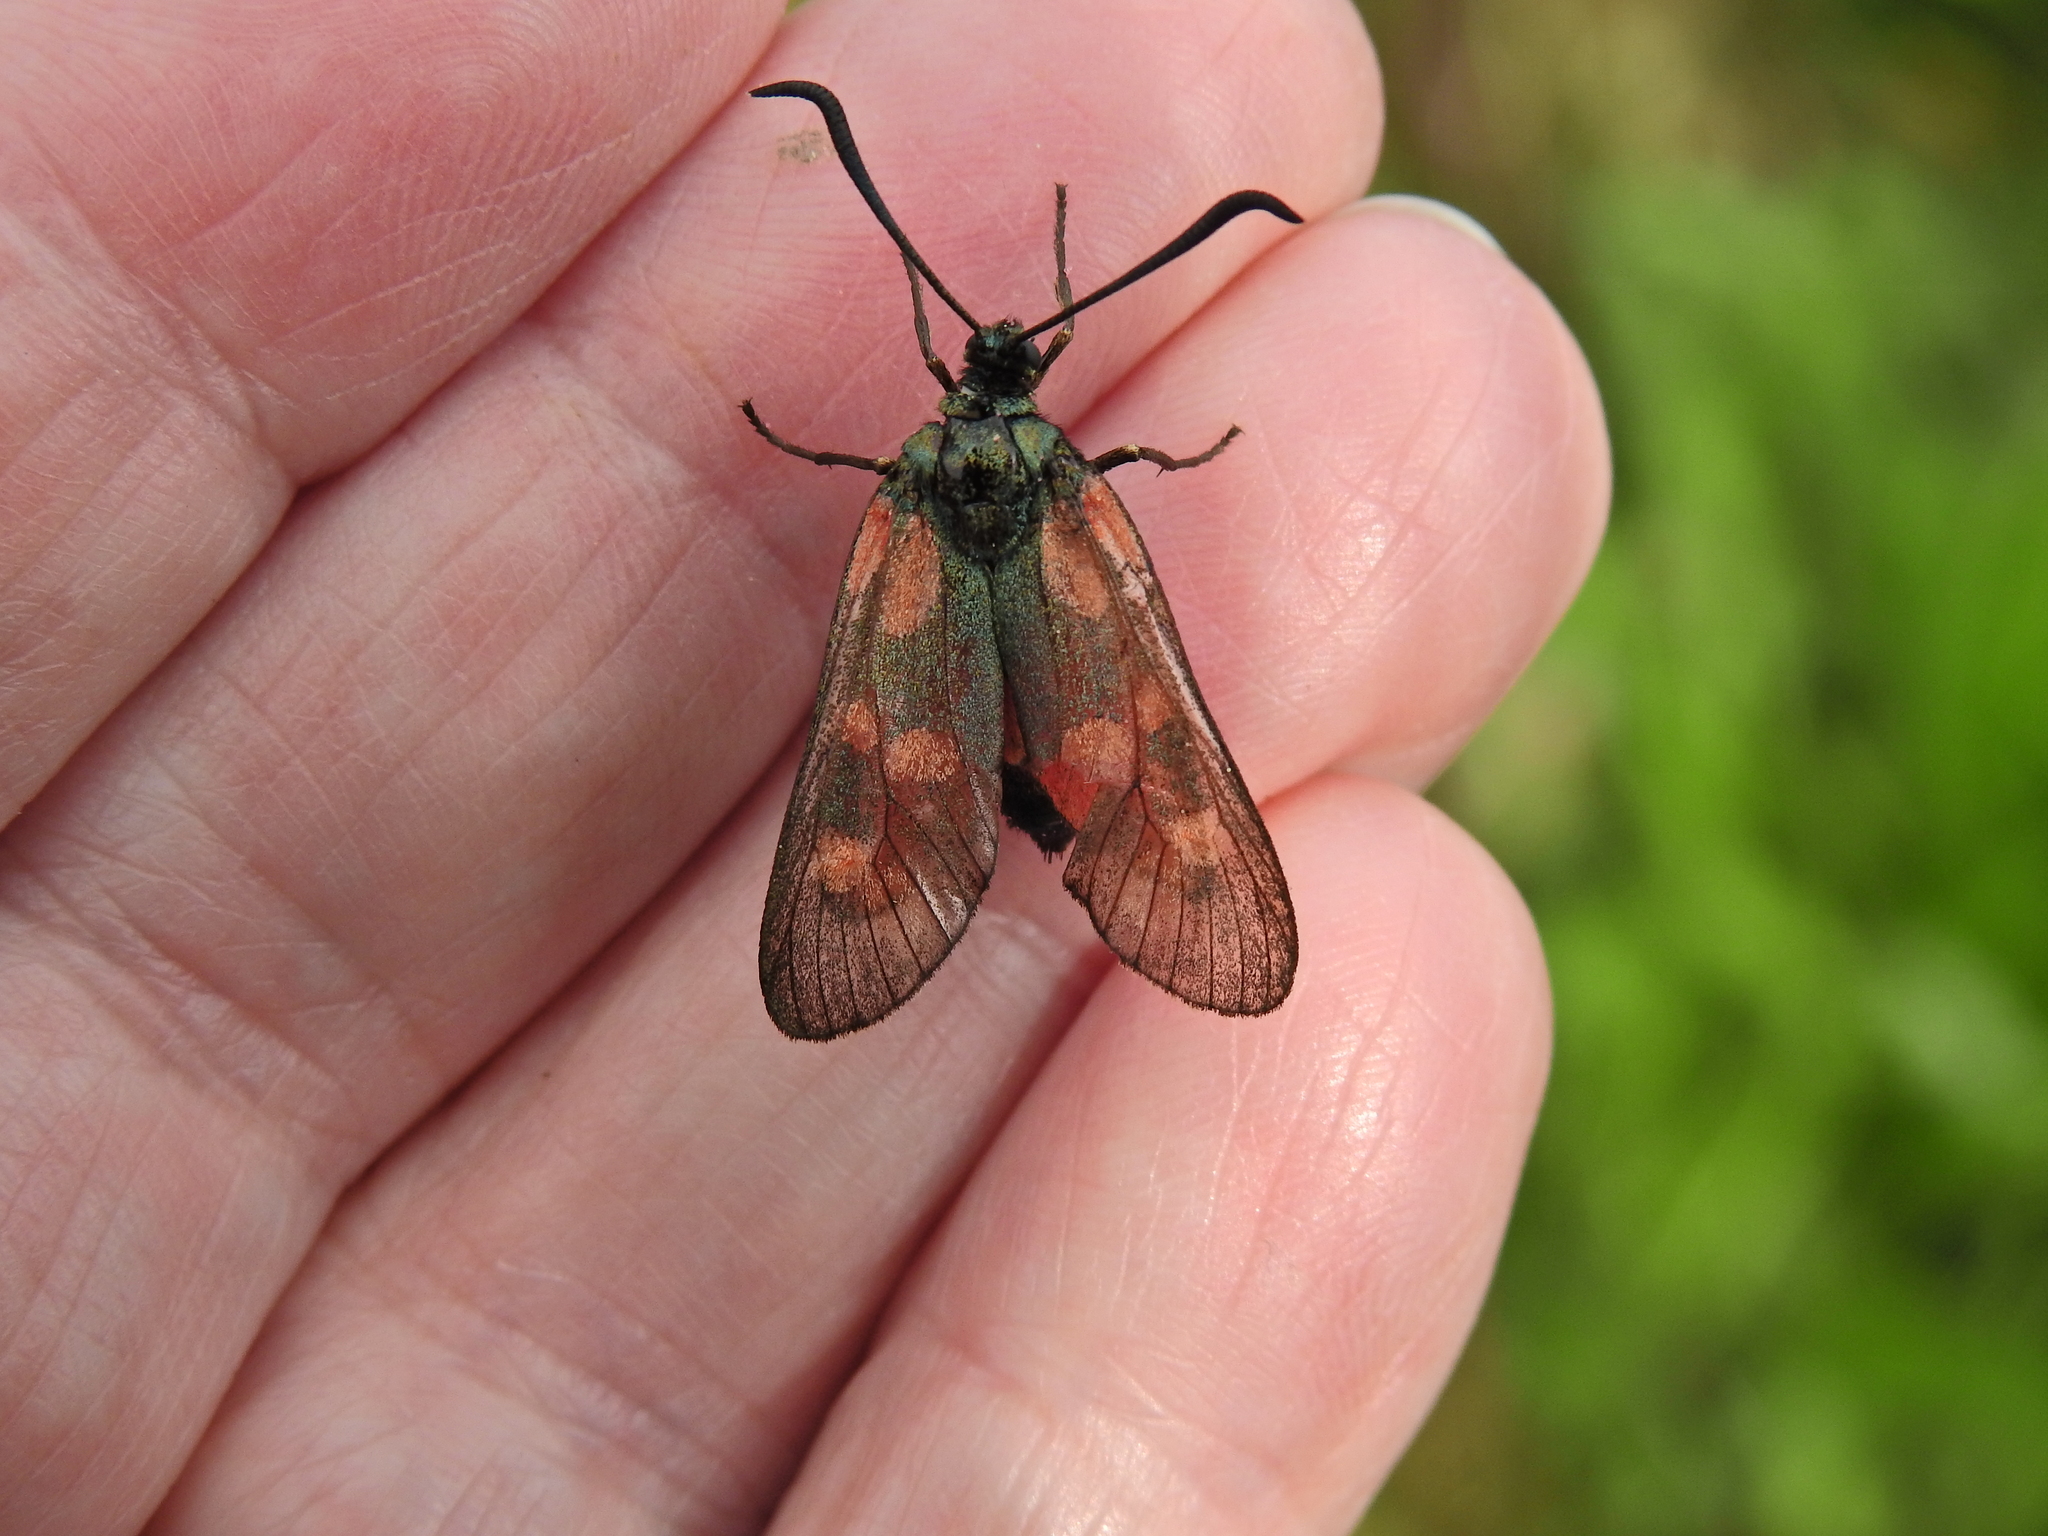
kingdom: Animalia
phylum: Arthropoda
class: Insecta
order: Lepidoptera
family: Zygaenidae
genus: Zygaena
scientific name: Zygaena filipendulae
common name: Six-spot burnet
